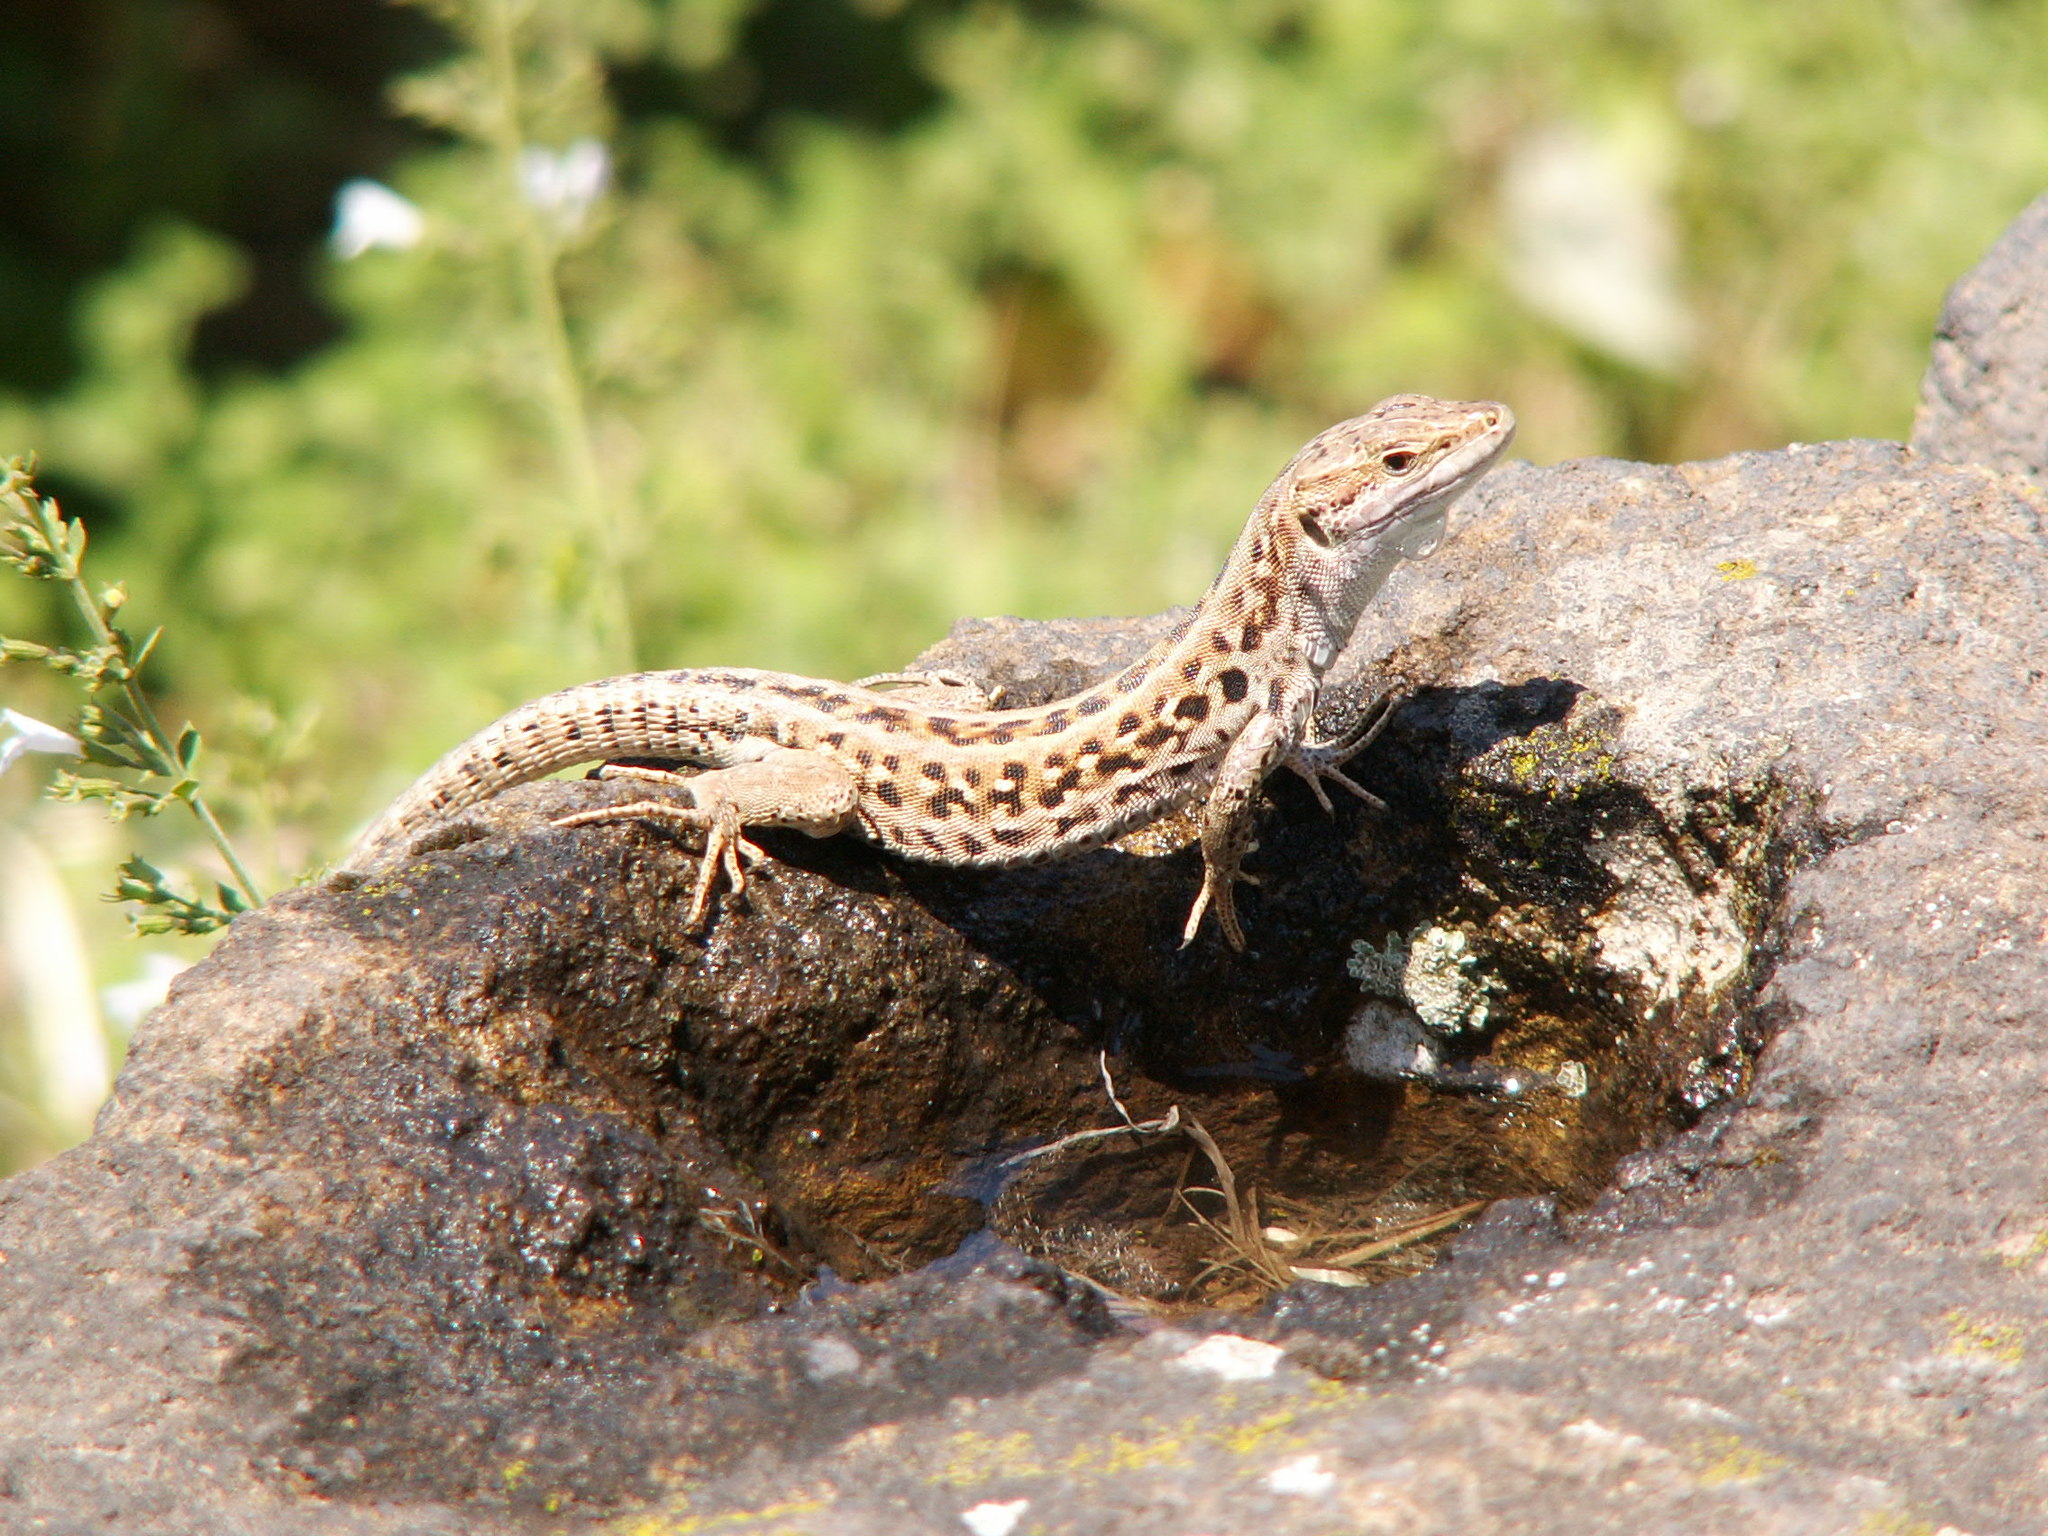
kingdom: Animalia
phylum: Chordata
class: Squamata
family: Lacertidae
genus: Podarcis
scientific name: Podarcis siculus
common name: Italian wall lizard
